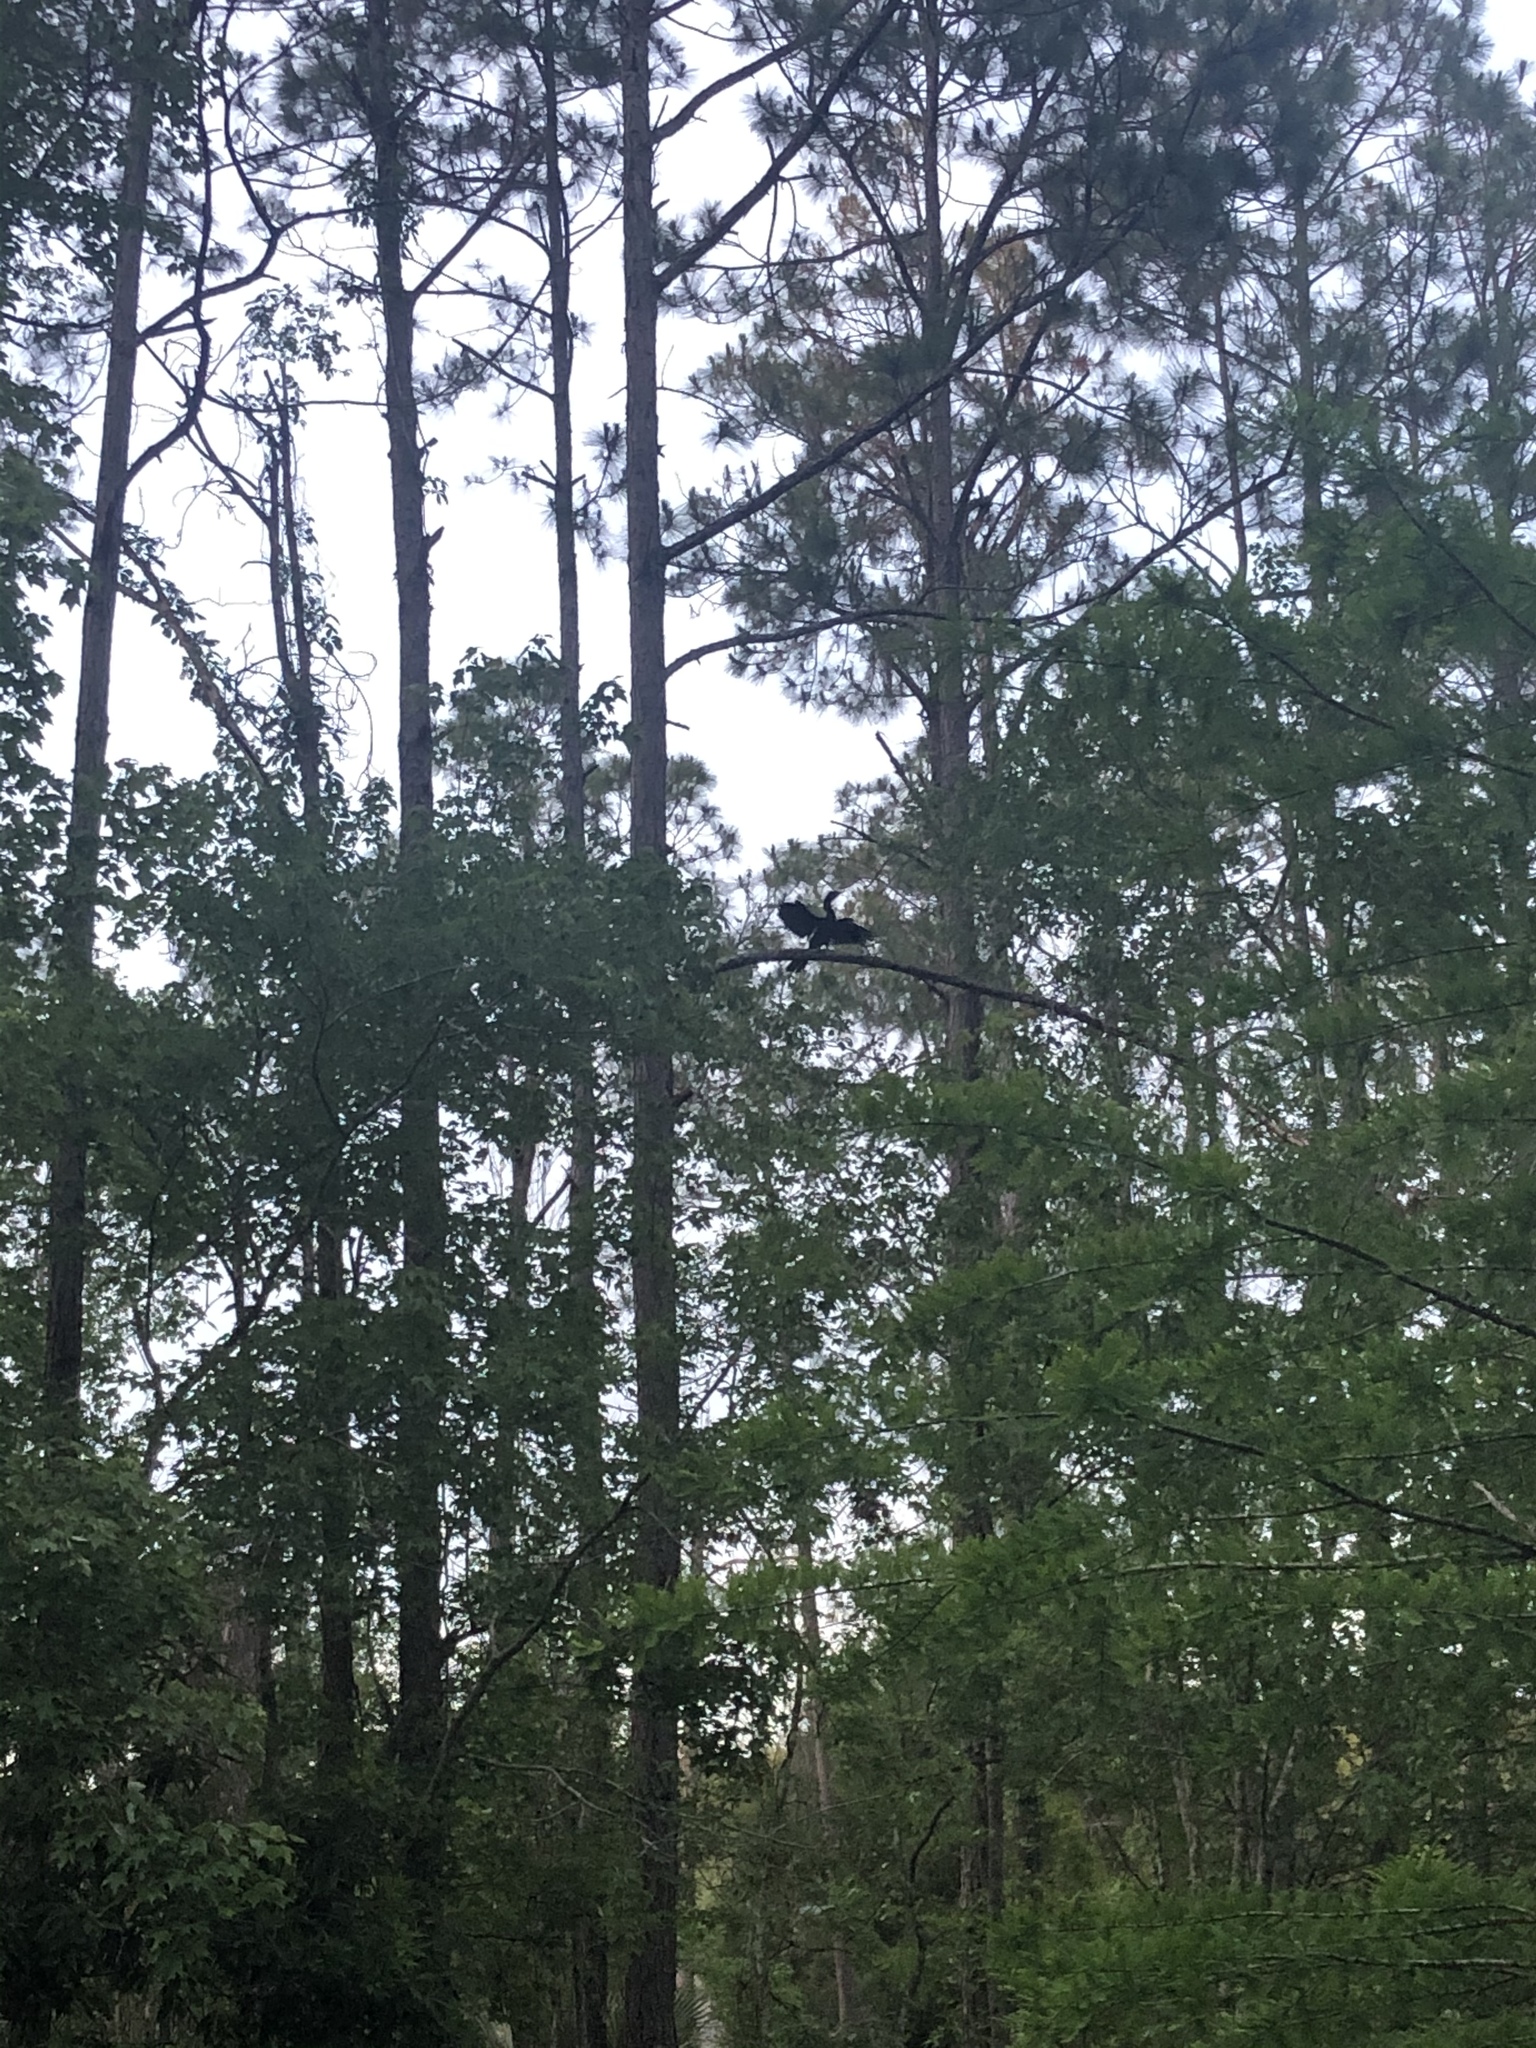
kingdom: Animalia
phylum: Chordata
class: Aves
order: Suliformes
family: Anhingidae
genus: Anhinga
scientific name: Anhinga anhinga
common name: Anhinga
